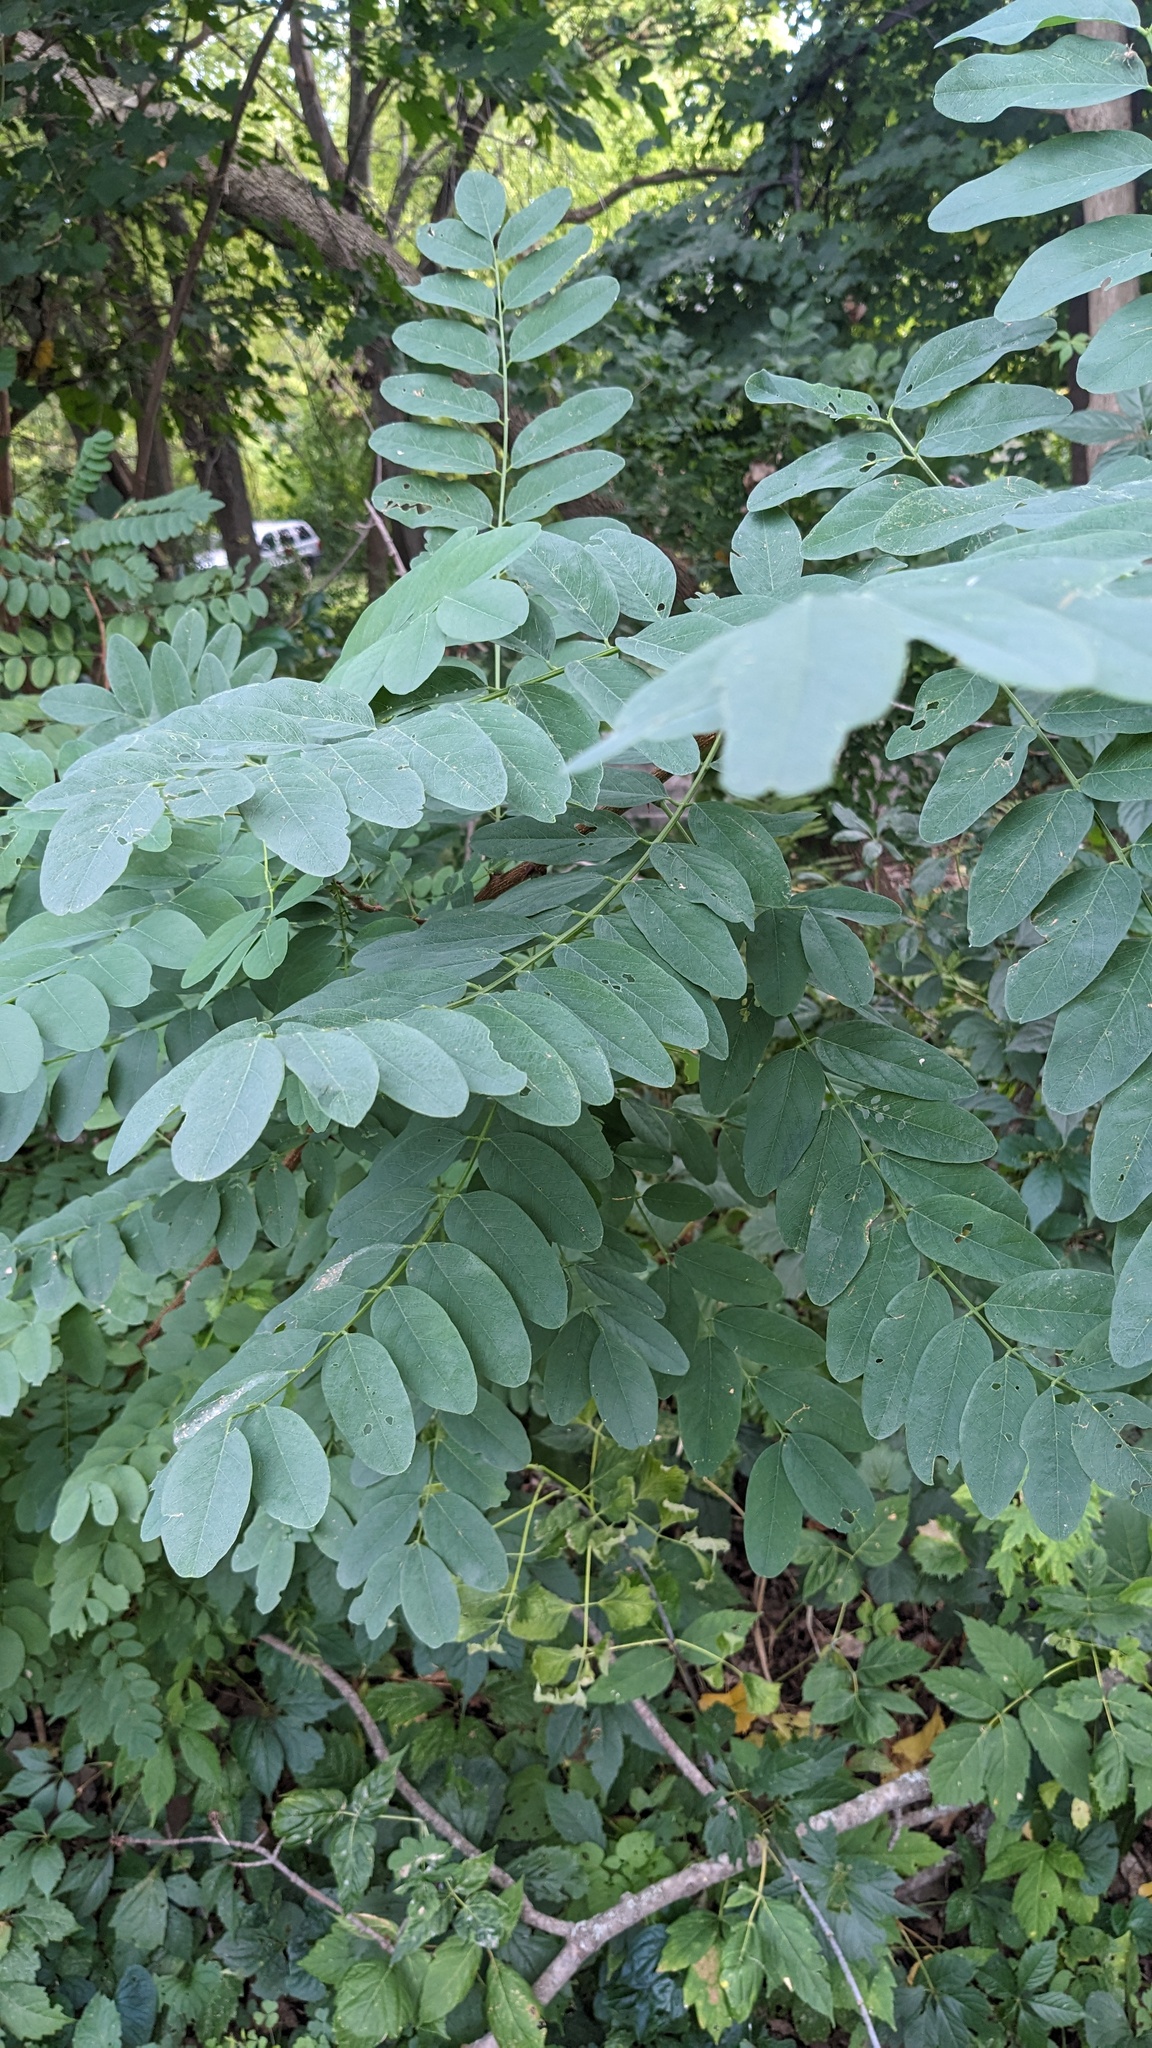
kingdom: Animalia
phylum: Arthropoda
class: Insecta
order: Lepidoptera
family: Gracillariidae
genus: Chrysaster
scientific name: Chrysaster ostensackenella
